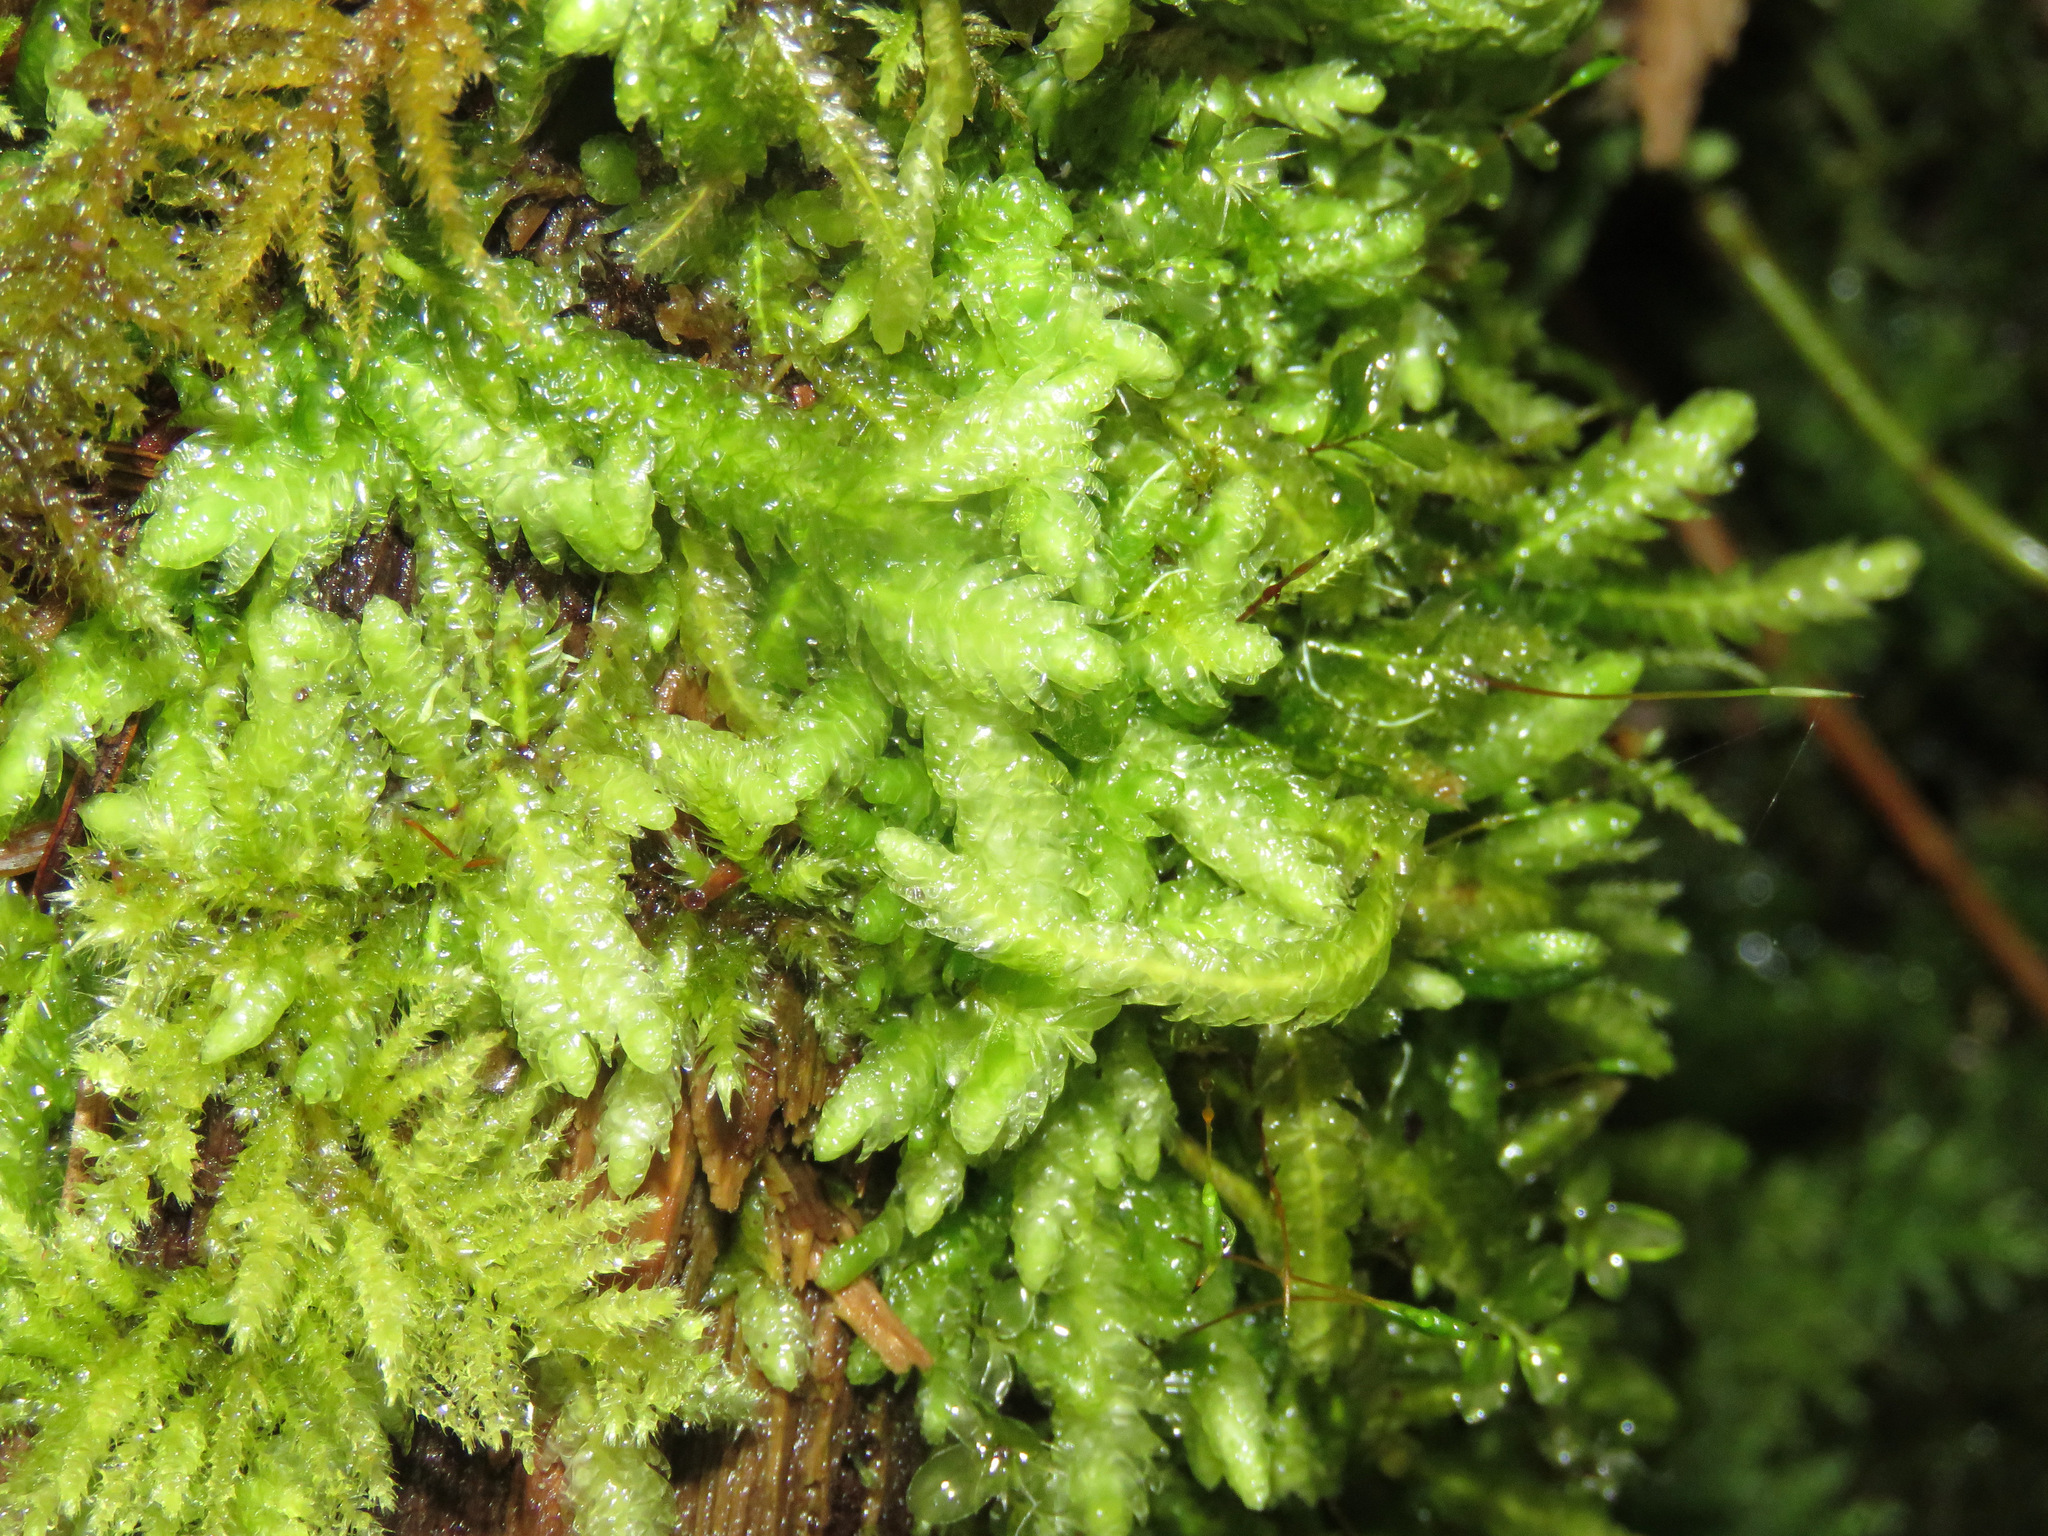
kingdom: Plantae
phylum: Bryophyta
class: Bryopsida
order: Hypnales
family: Plagiotheciaceae
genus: Plagiothecium
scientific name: Plagiothecium undulatum
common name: Waved silk-moss
